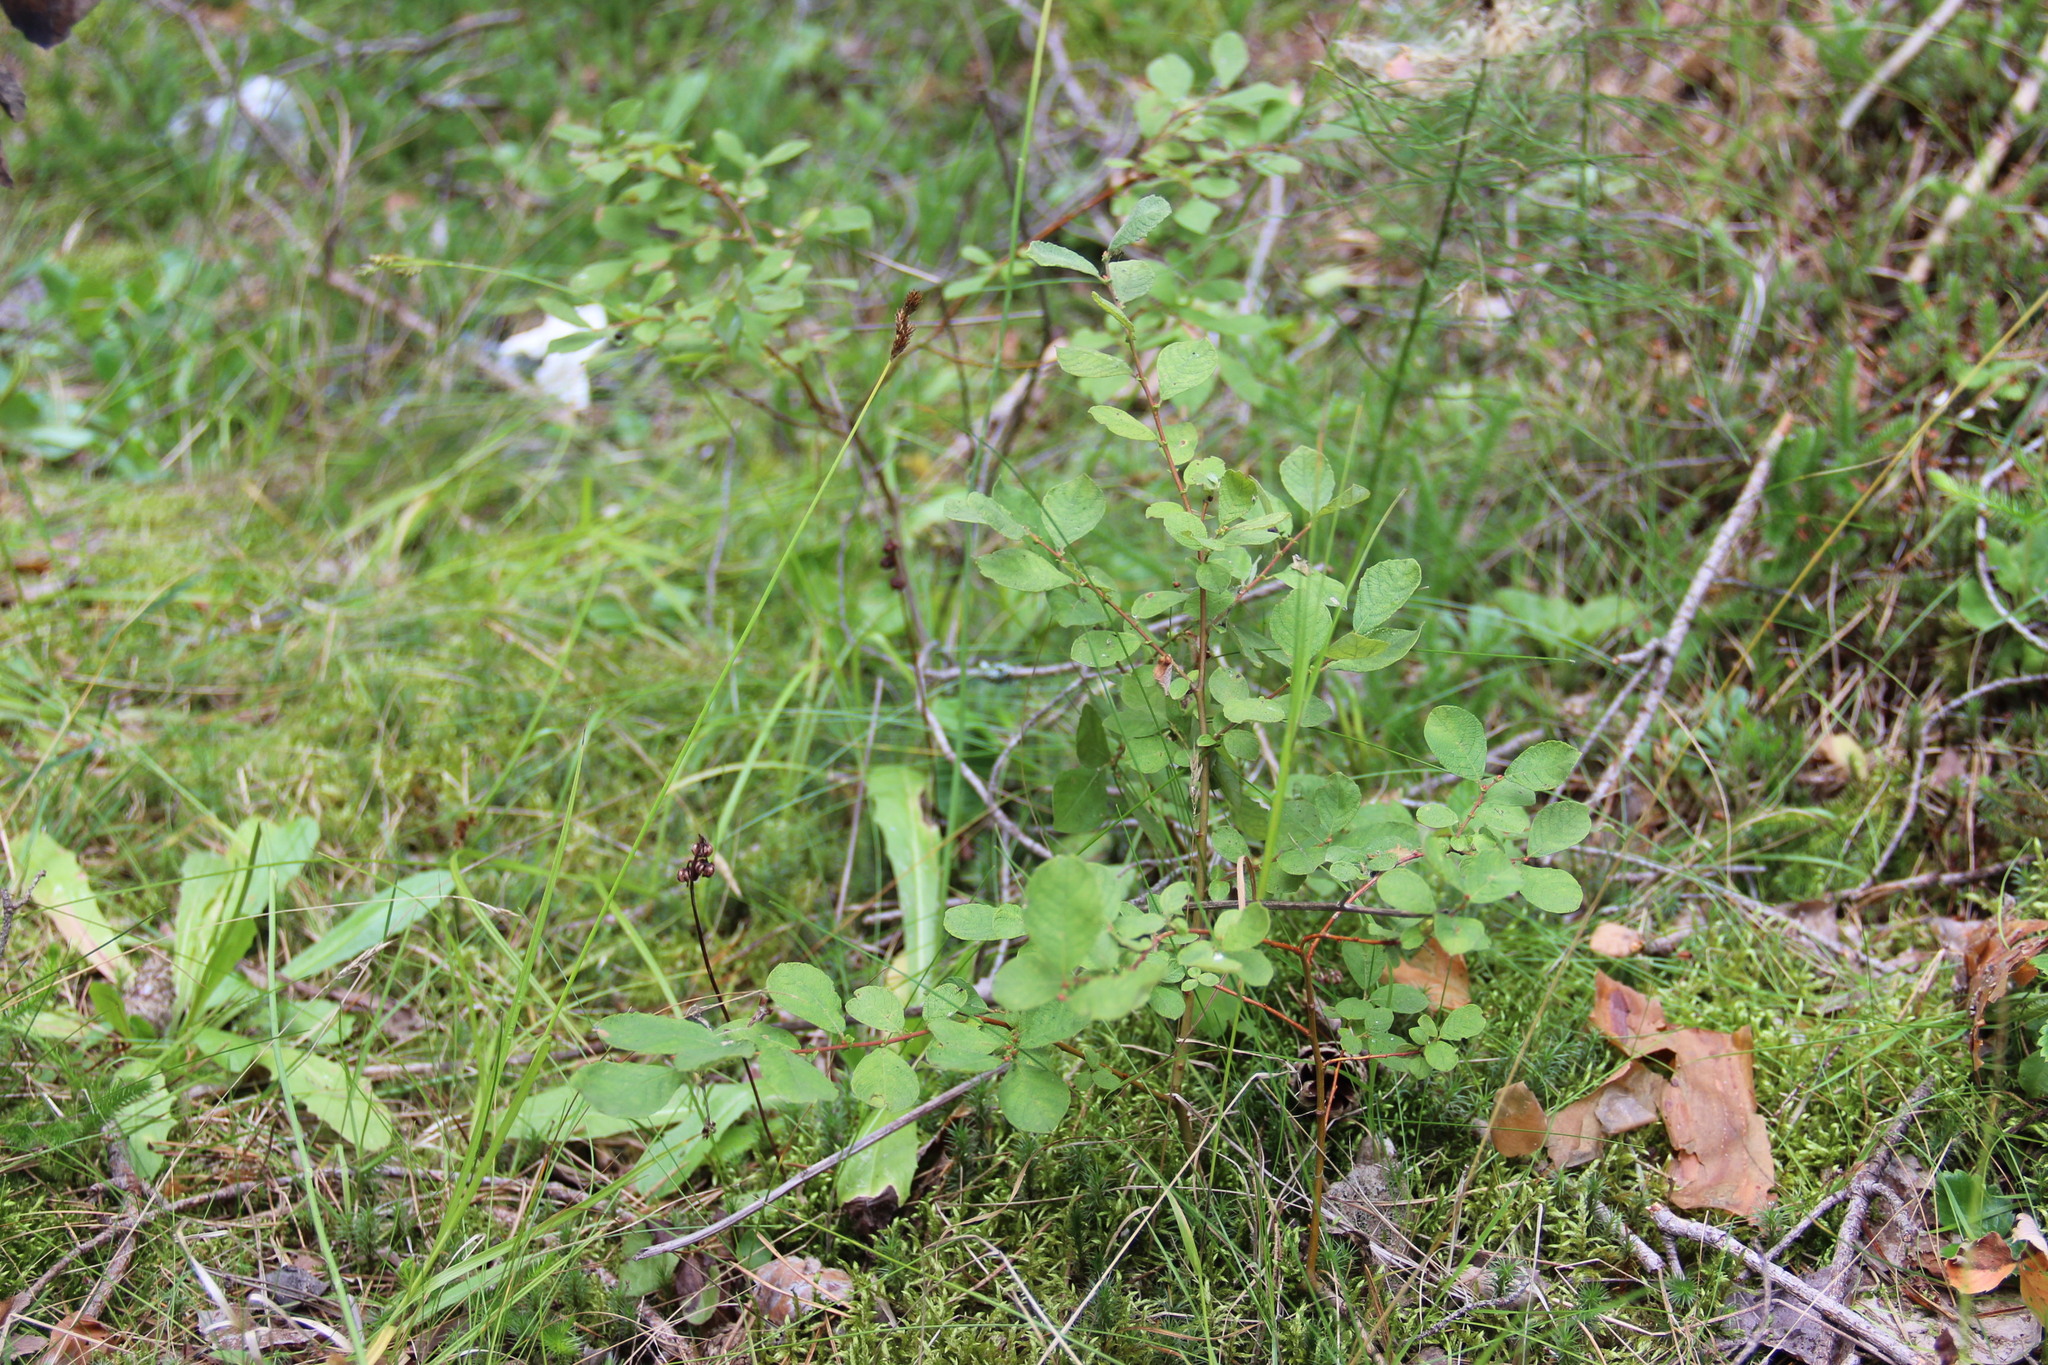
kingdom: Plantae
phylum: Tracheophyta
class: Magnoliopsida
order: Malpighiales
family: Salicaceae
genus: Salix
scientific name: Salix aurita
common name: Eared willow
